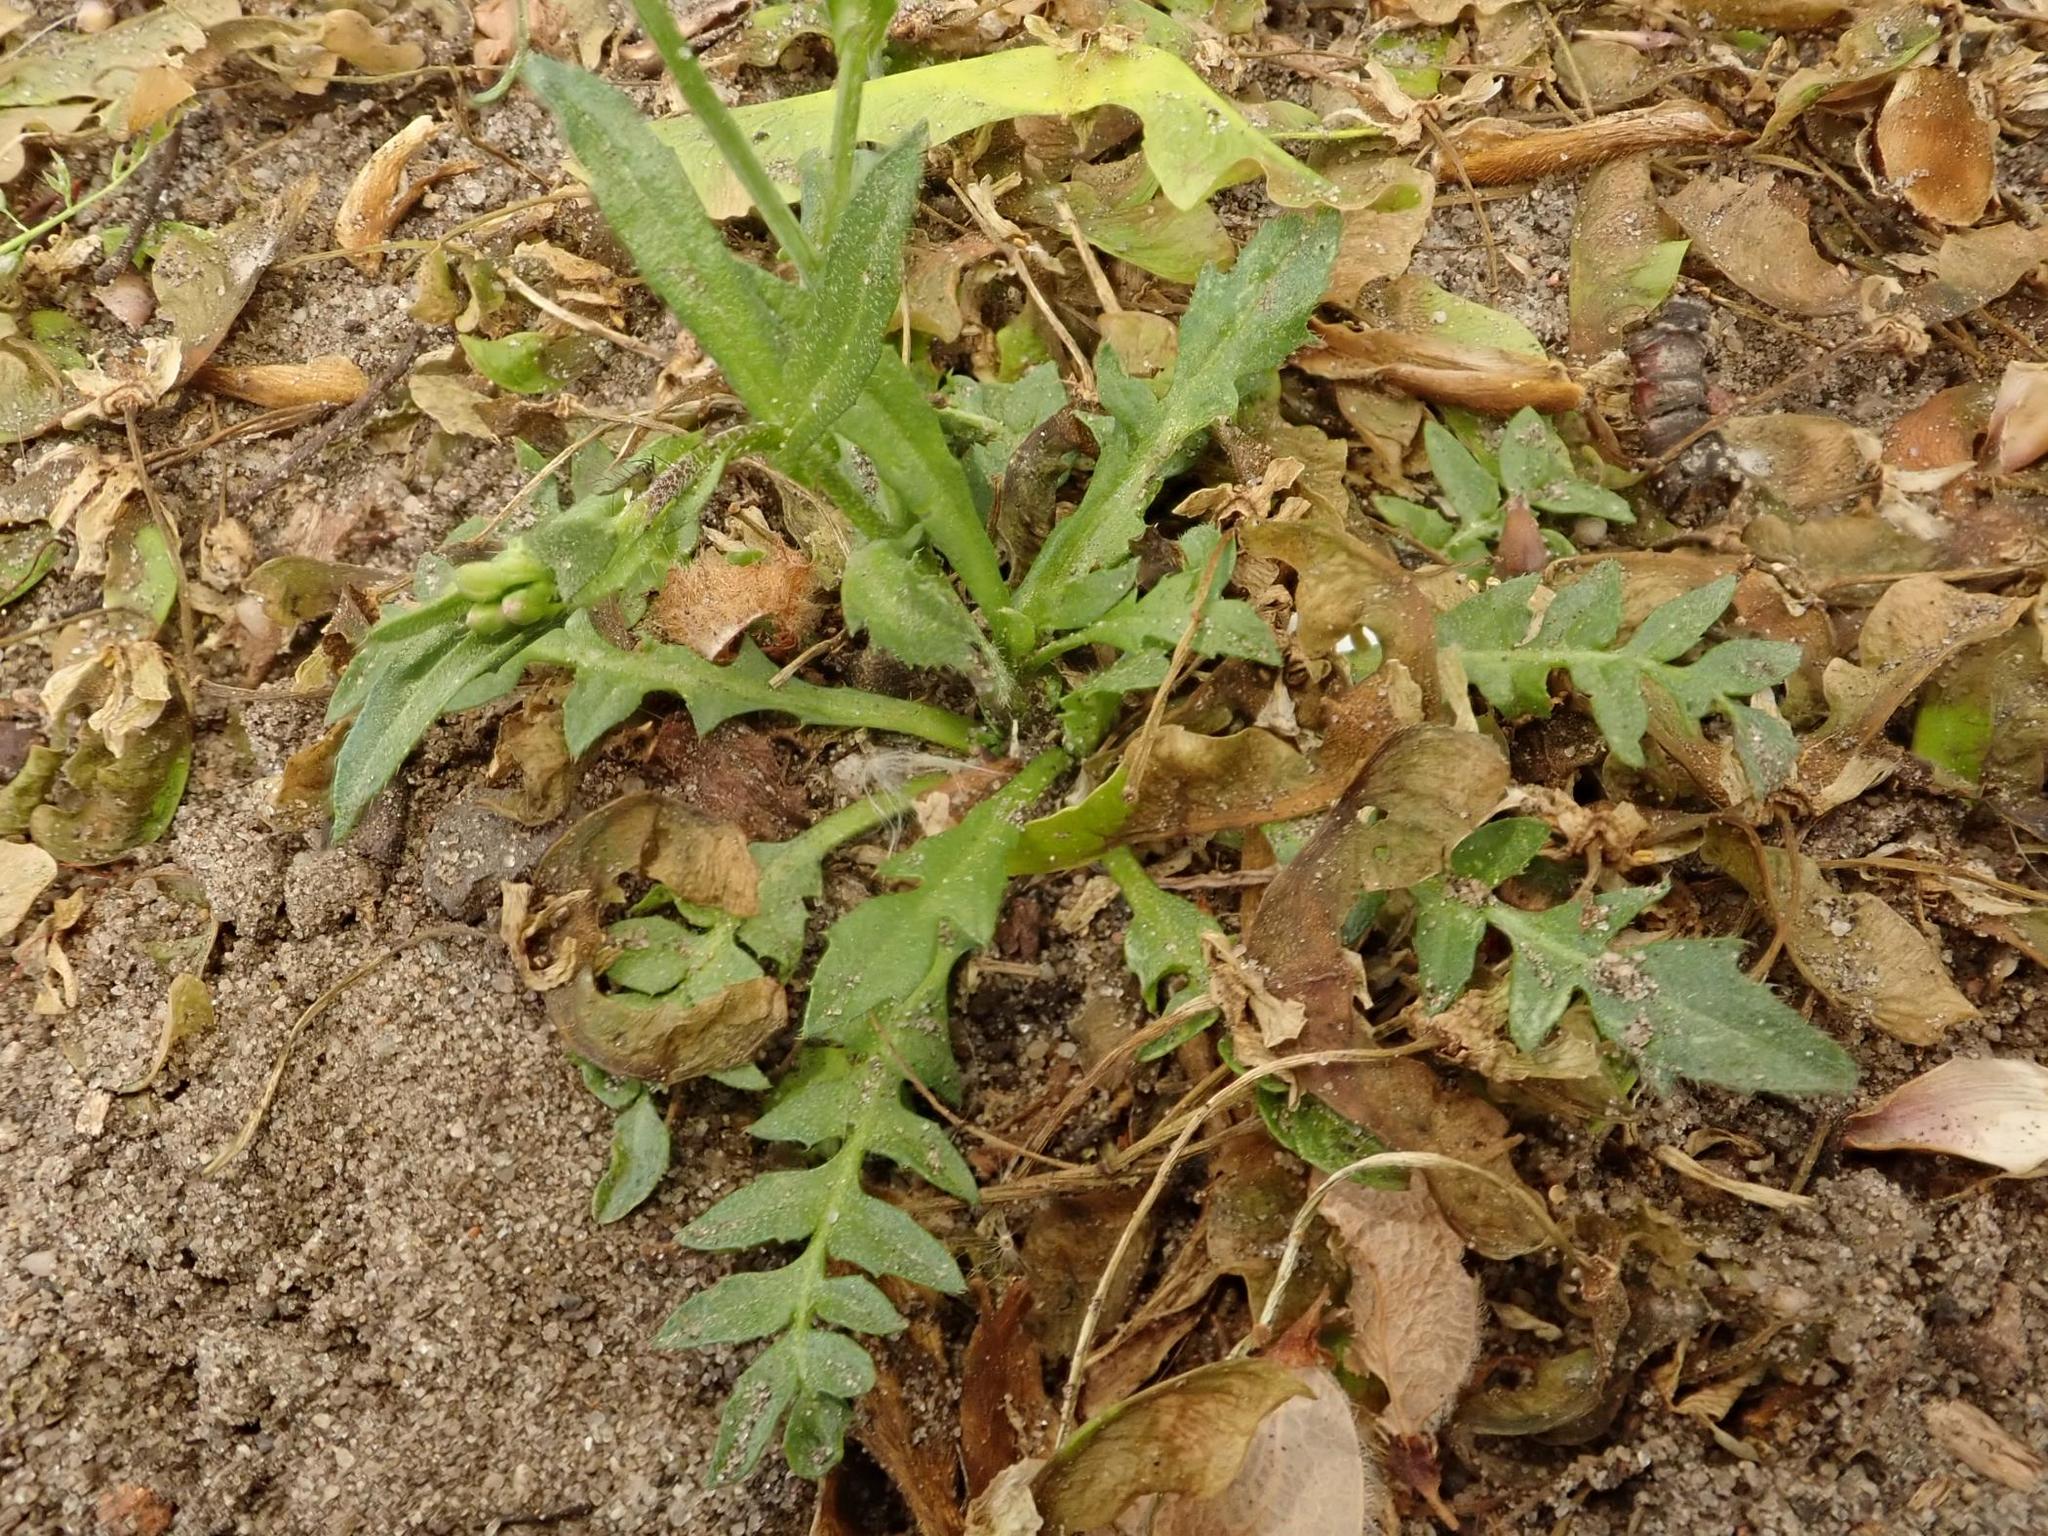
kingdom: Plantae
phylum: Tracheophyta
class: Magnoliopsida
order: Brassicales
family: Brassicaceae
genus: Capsella
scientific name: Capsella bursa-pastoris
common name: Shepherd's purse
